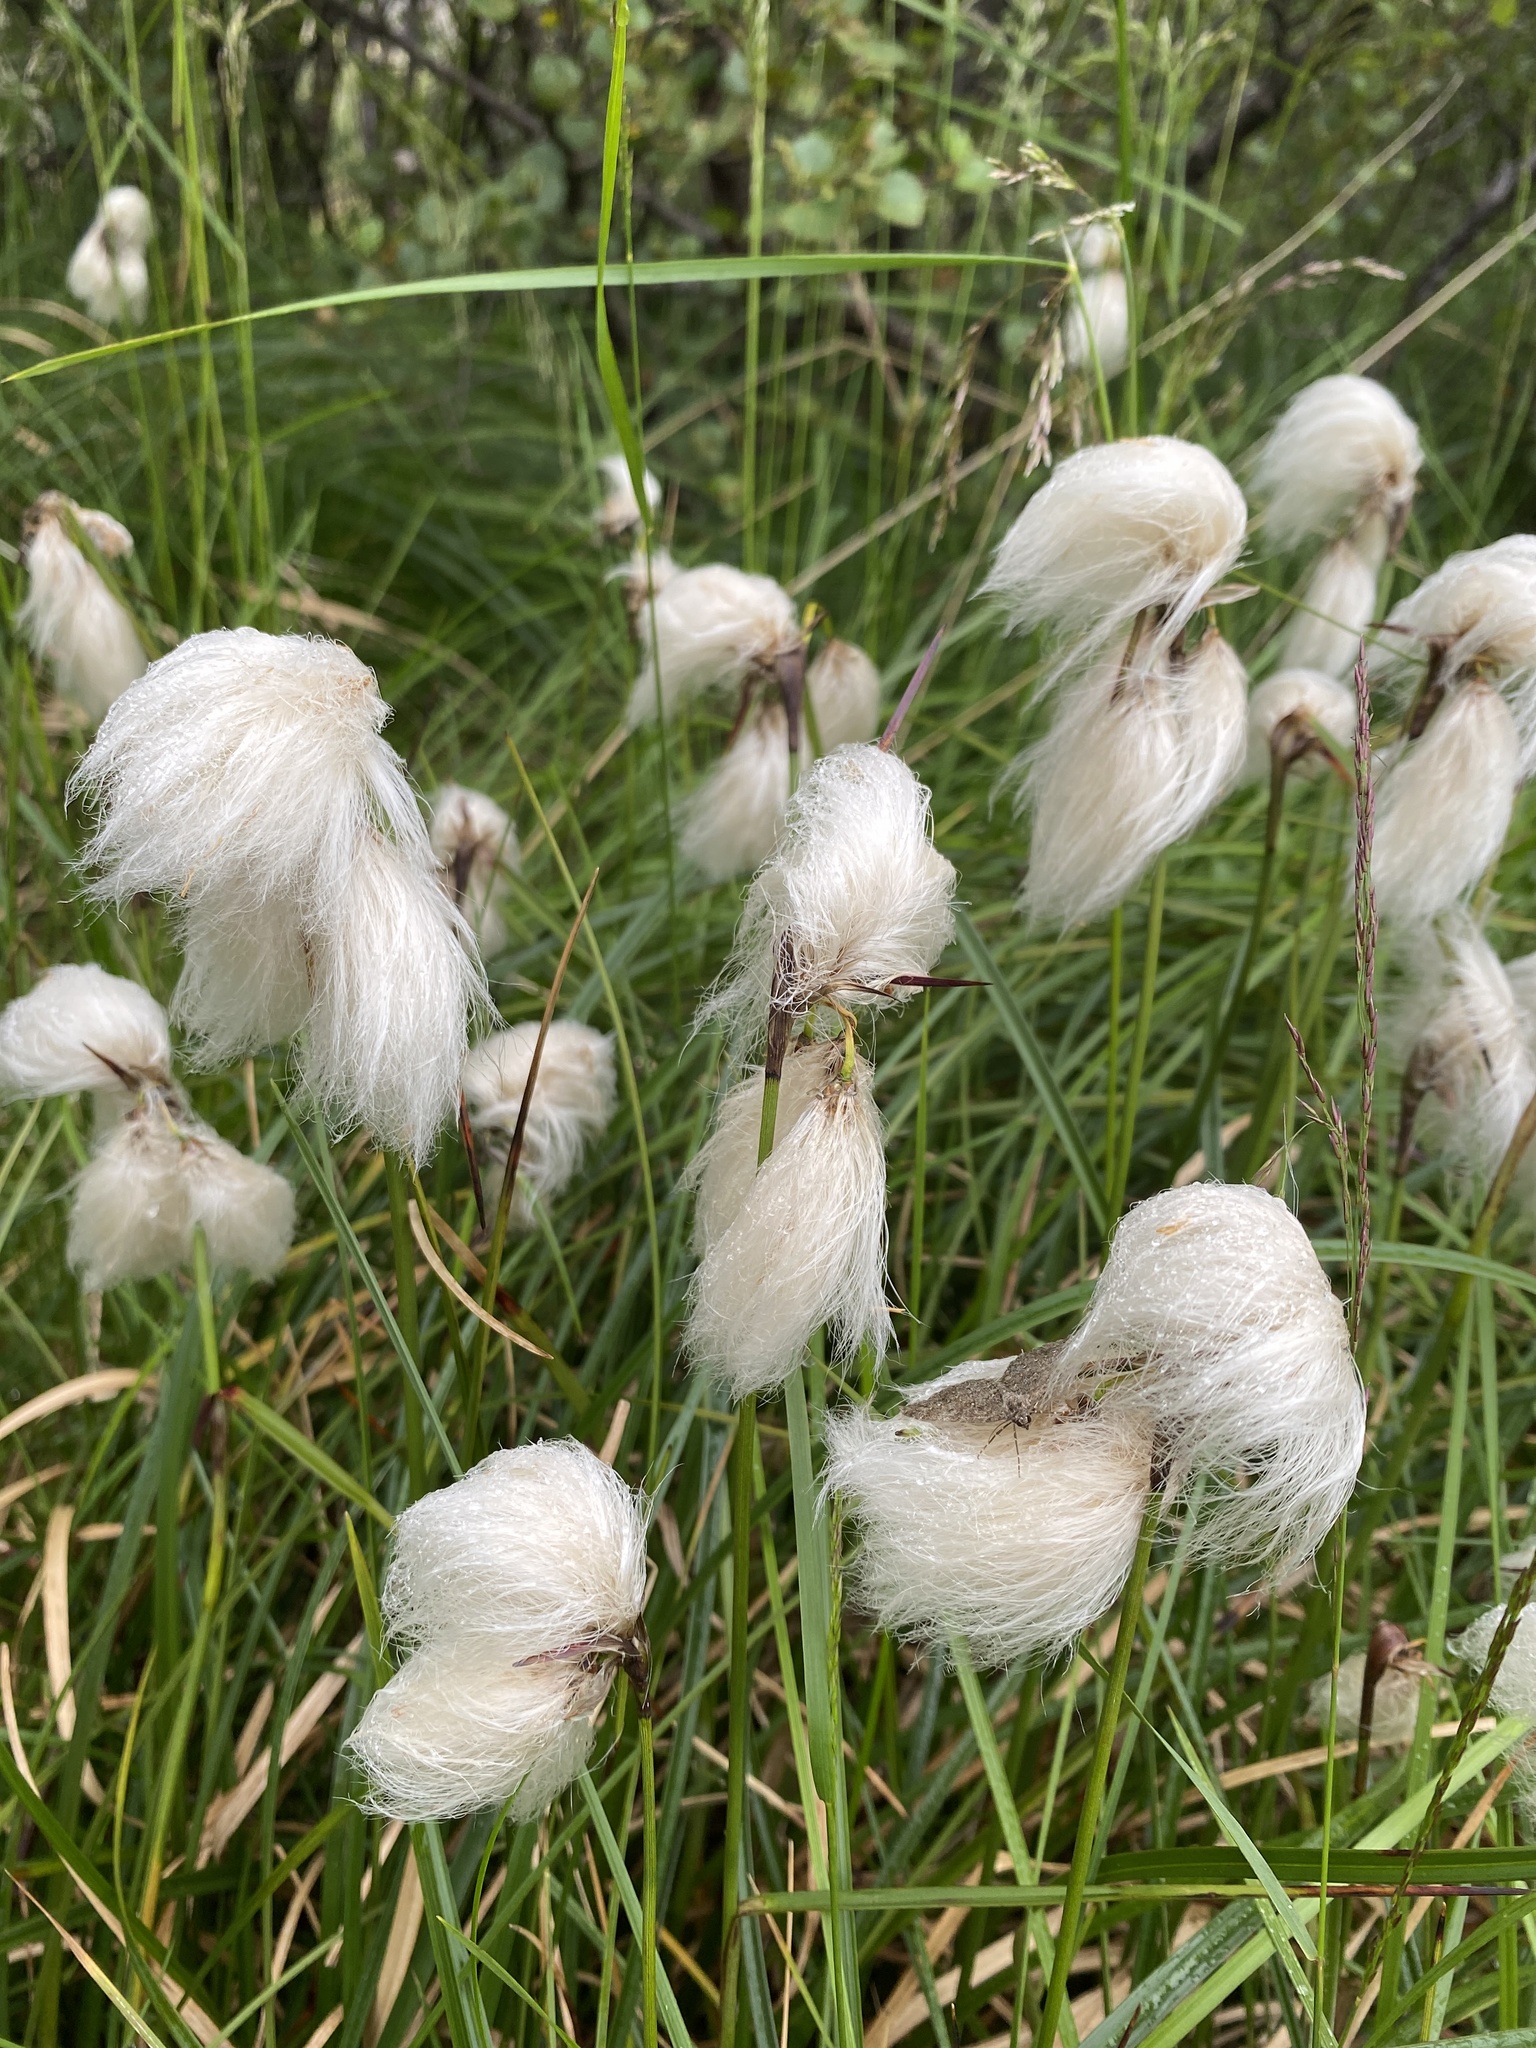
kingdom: Plantae
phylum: Tracheophyta
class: Liliopsida
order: Poales
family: Cyperaceae
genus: Eriophorum
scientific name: Eriophorum angustifolium
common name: Common cottongrass
